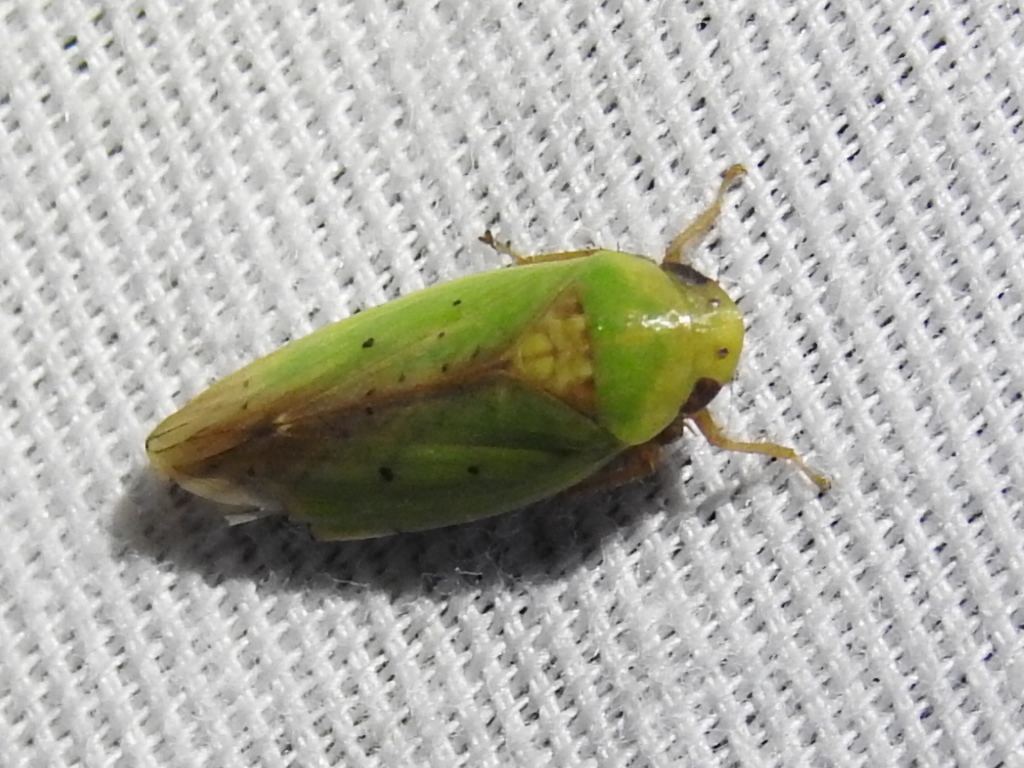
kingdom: Animalia
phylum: Arthropoda
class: Insecta
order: Hemiptera
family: Cicadellidae
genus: Ponana
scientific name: Ponana
